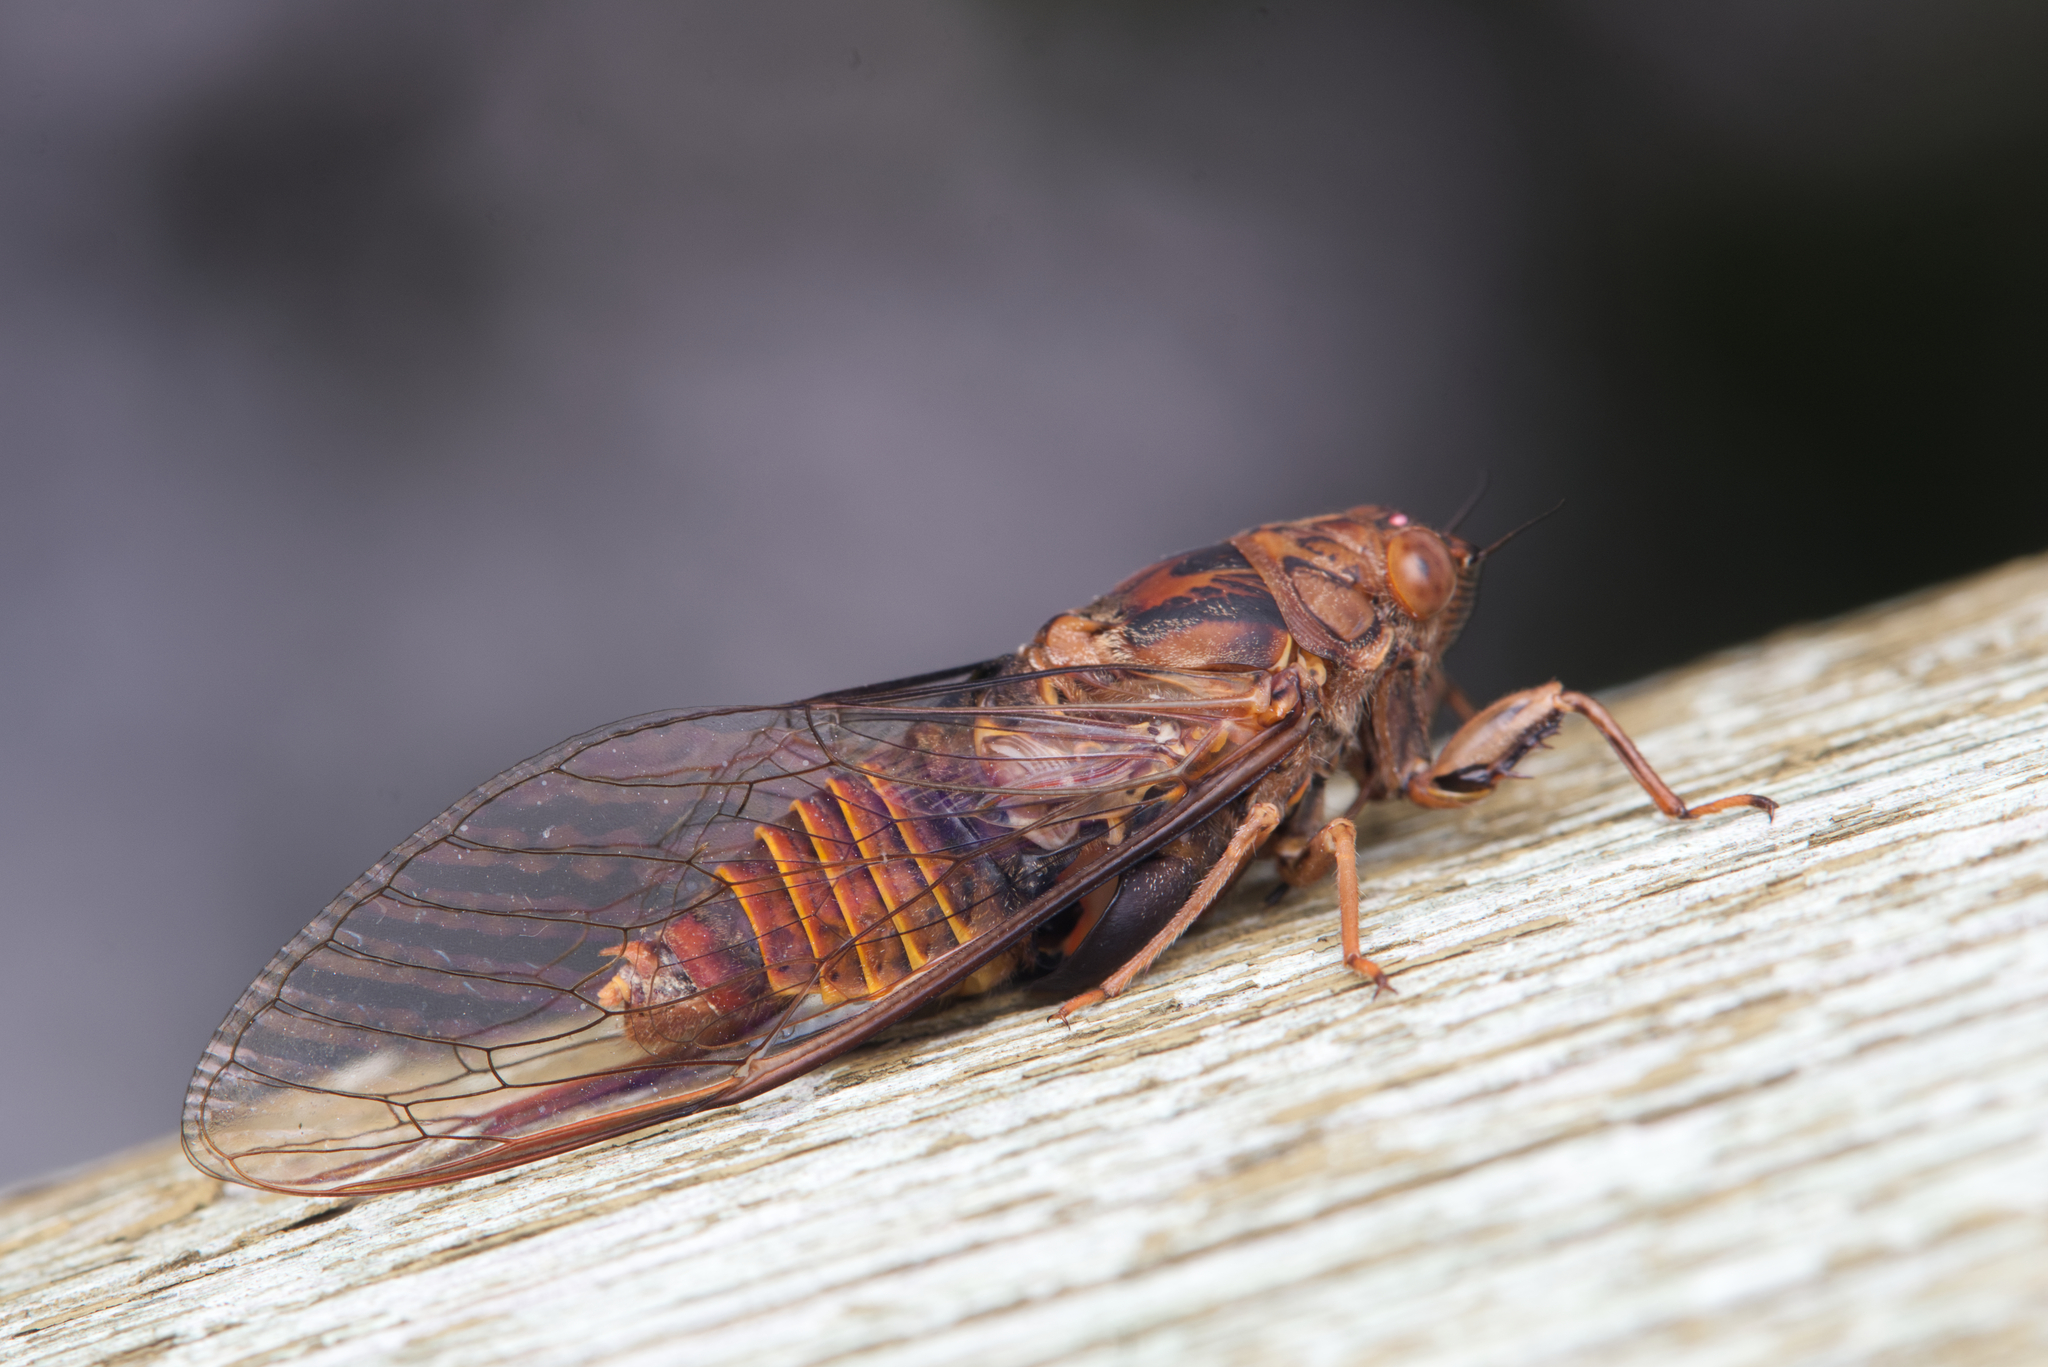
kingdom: Animalia
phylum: Arthropoda
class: Insecta
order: Hemiptera
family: Cicadidae
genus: Birrima
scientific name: Birrima varians
